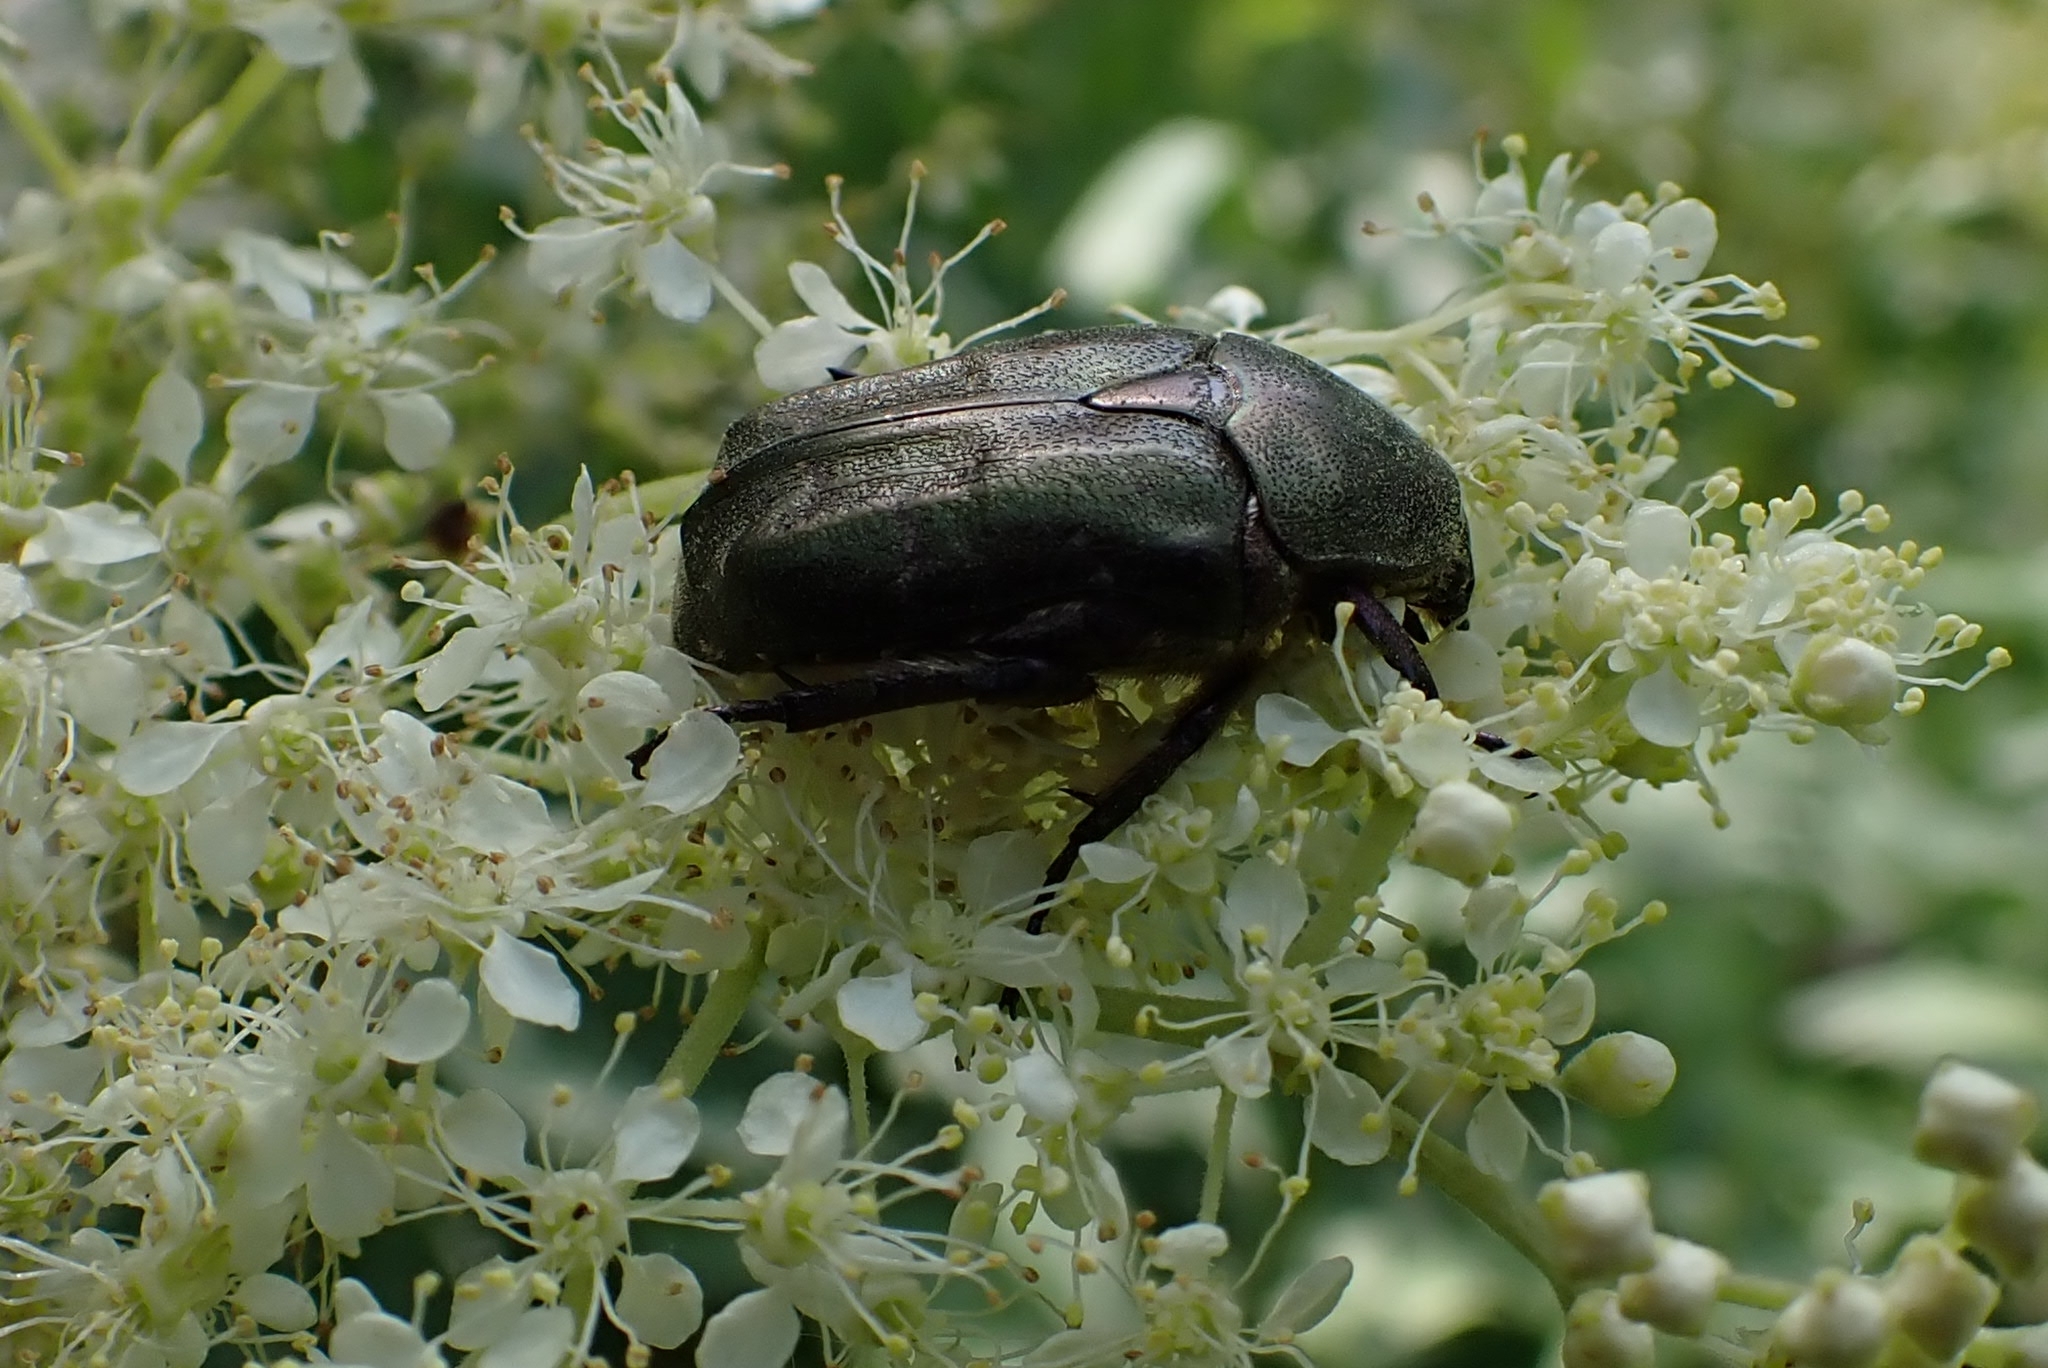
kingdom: Animalia
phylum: Arthropoda
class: Insecta
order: Coleoptera
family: Scarabaeidae
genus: Protaetia
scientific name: Protaetia cuprea
